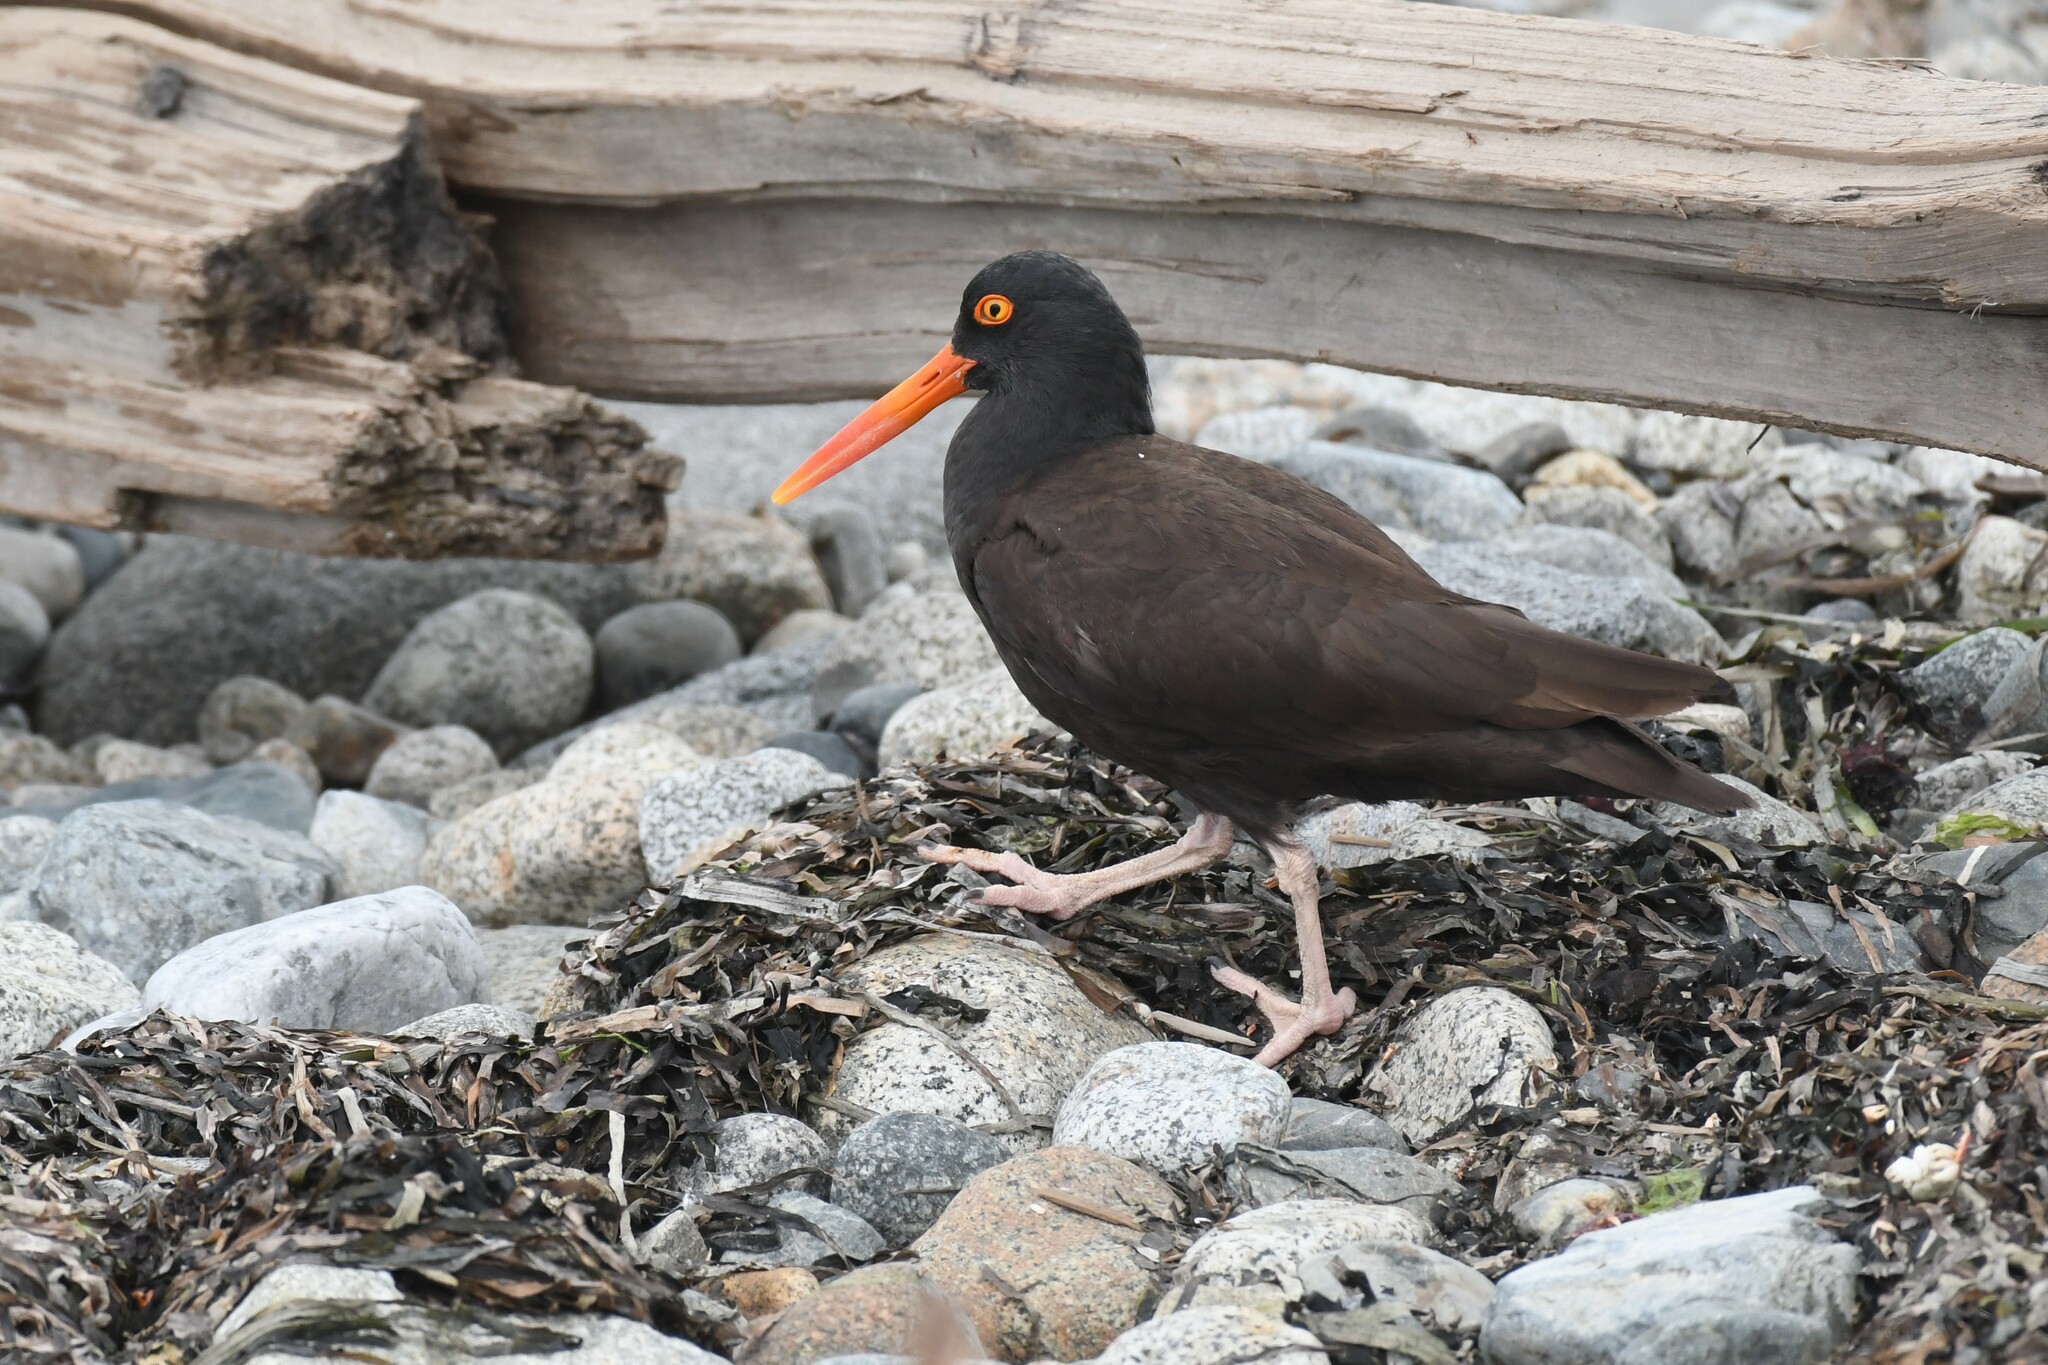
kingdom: Animalia
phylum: Chordata
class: Aves
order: Charadriiformes
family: Haematopodidae
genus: Haematopus
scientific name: Haematopus bachmani
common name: Black oystercatcher
